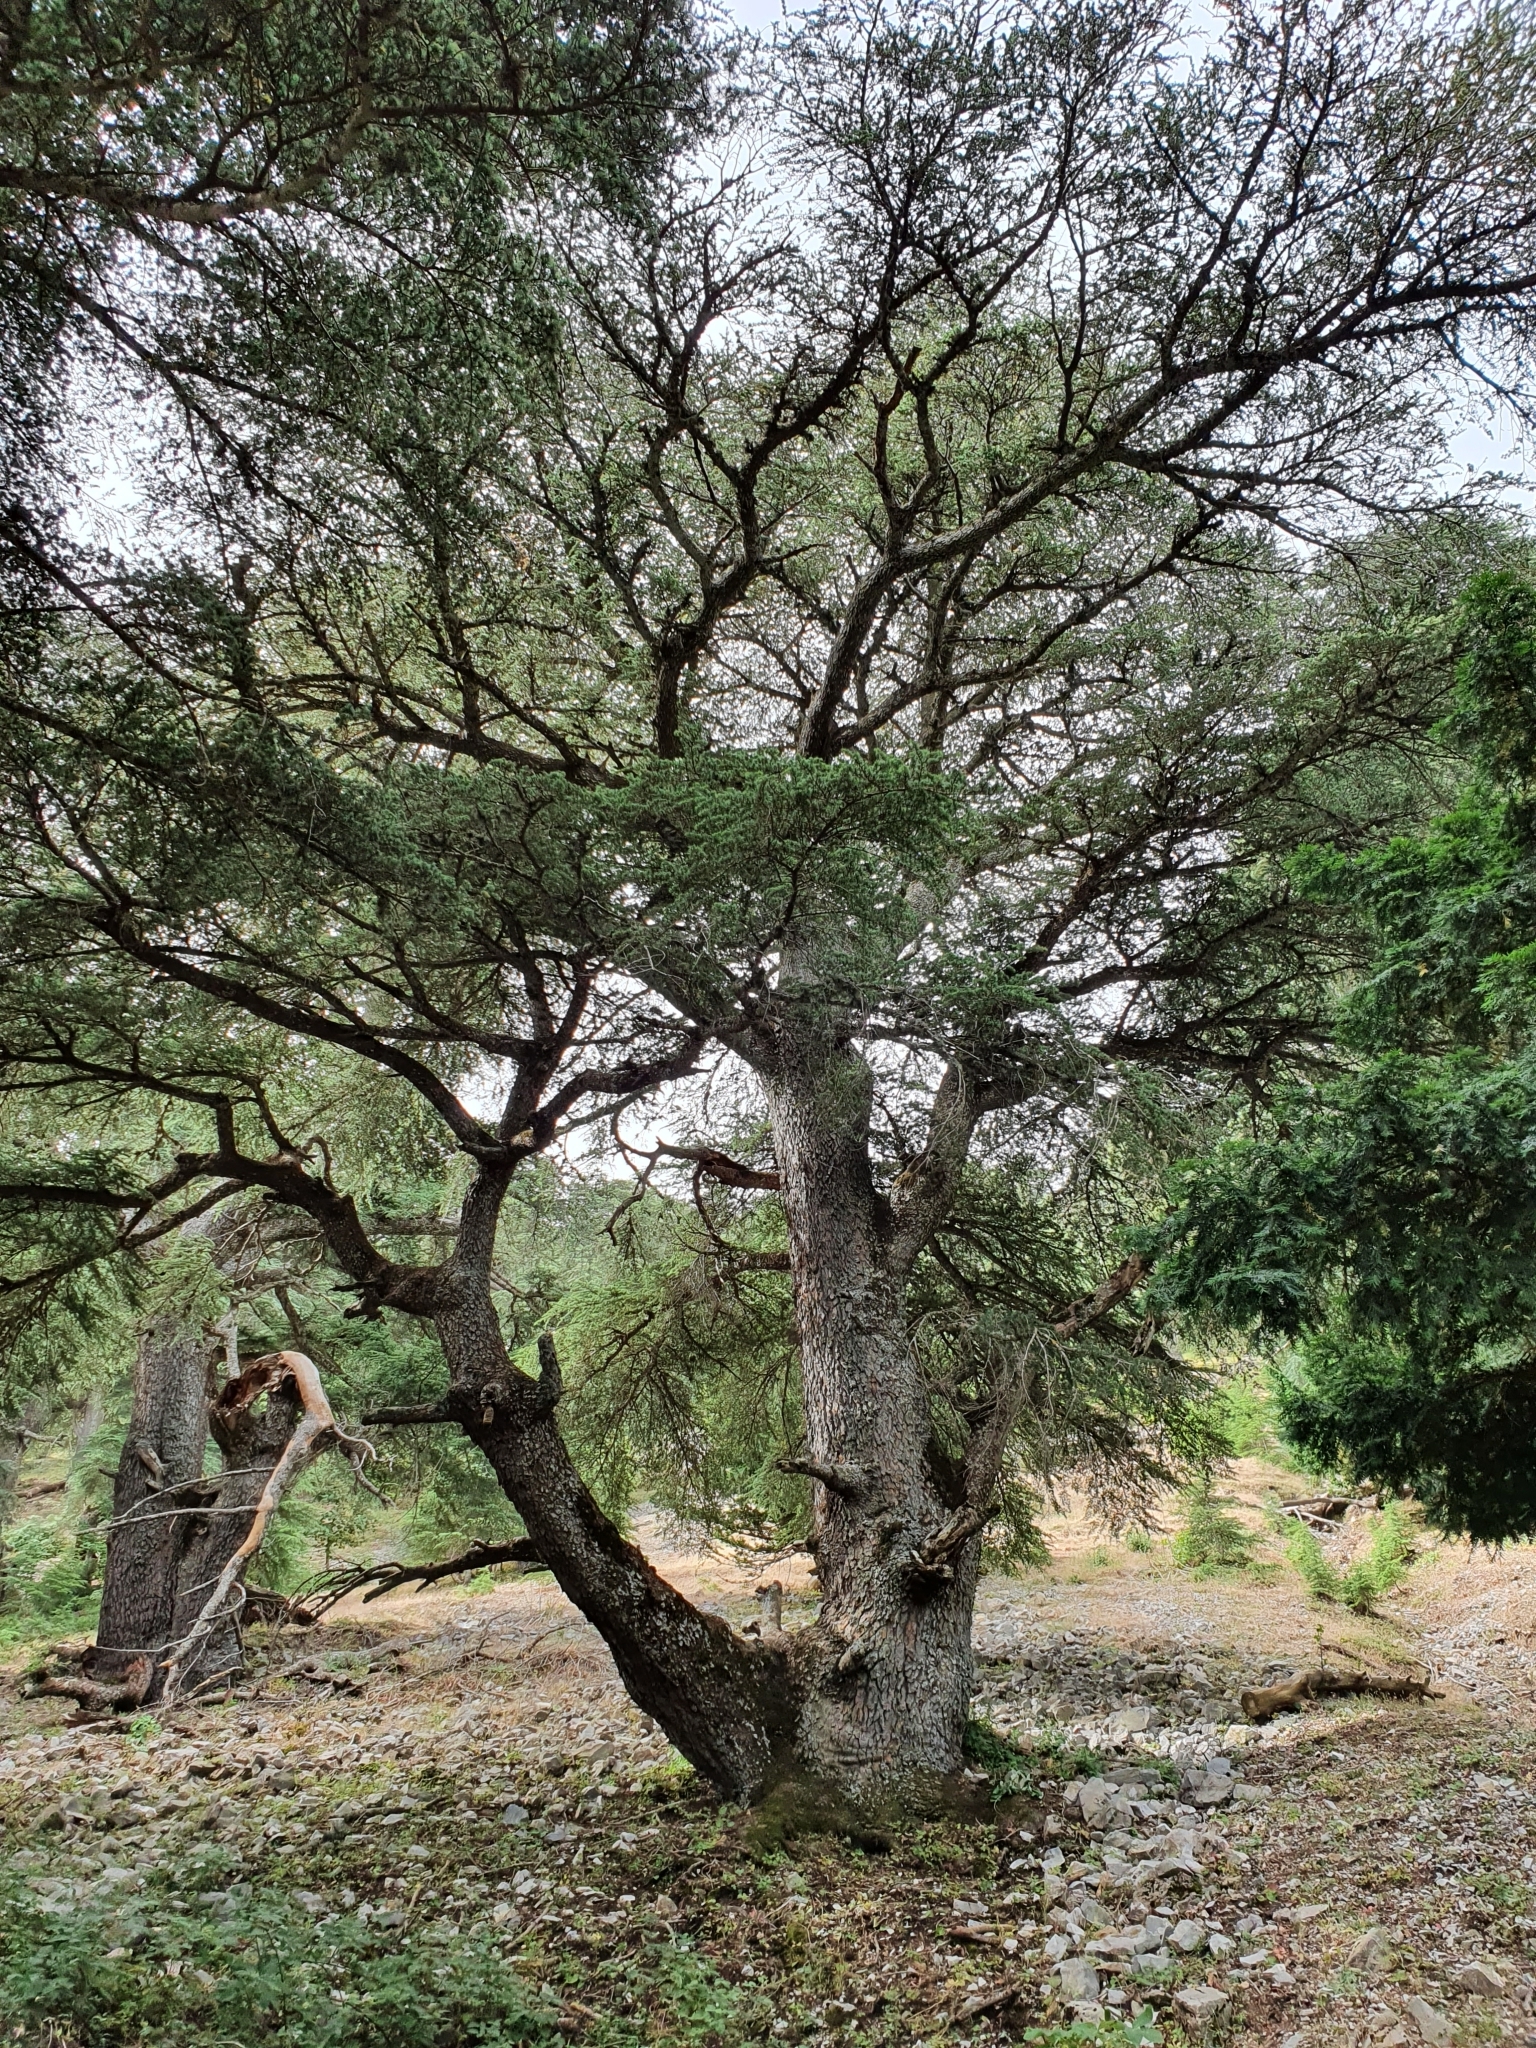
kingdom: Plantae
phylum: Tracheophyta
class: Pinopsida
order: Pinales
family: Pinaceae
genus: Cedrus
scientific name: Cedrus atlantica
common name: Atlas cedar
